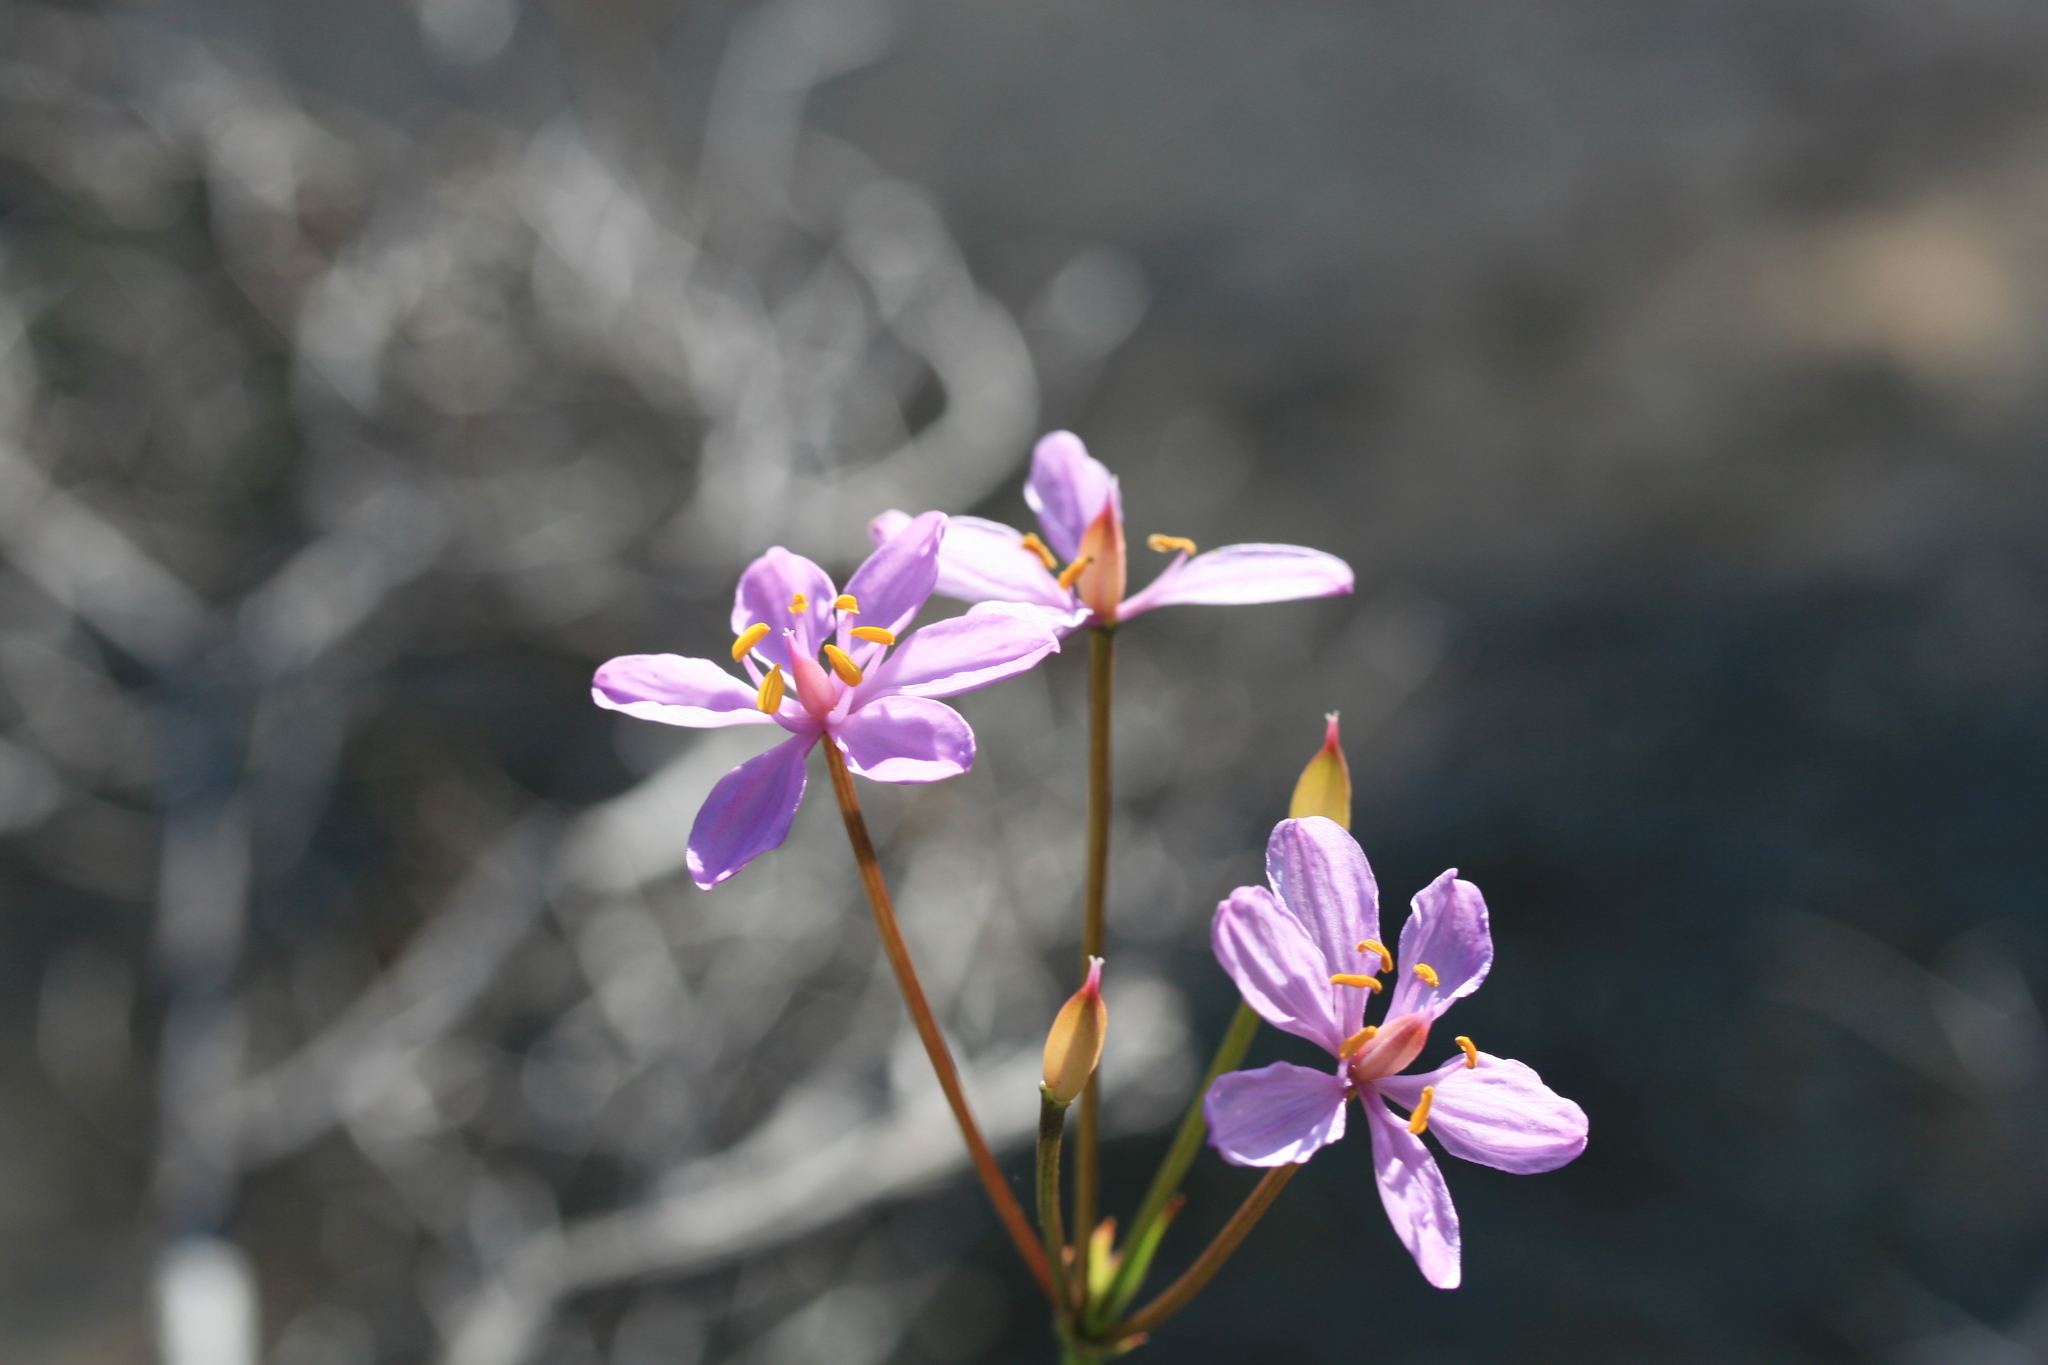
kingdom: Plantae
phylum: Tracheophyta
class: Liliopsida
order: Liliales
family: Colchicaceae
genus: Burchardia
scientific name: Burchardia rosea
